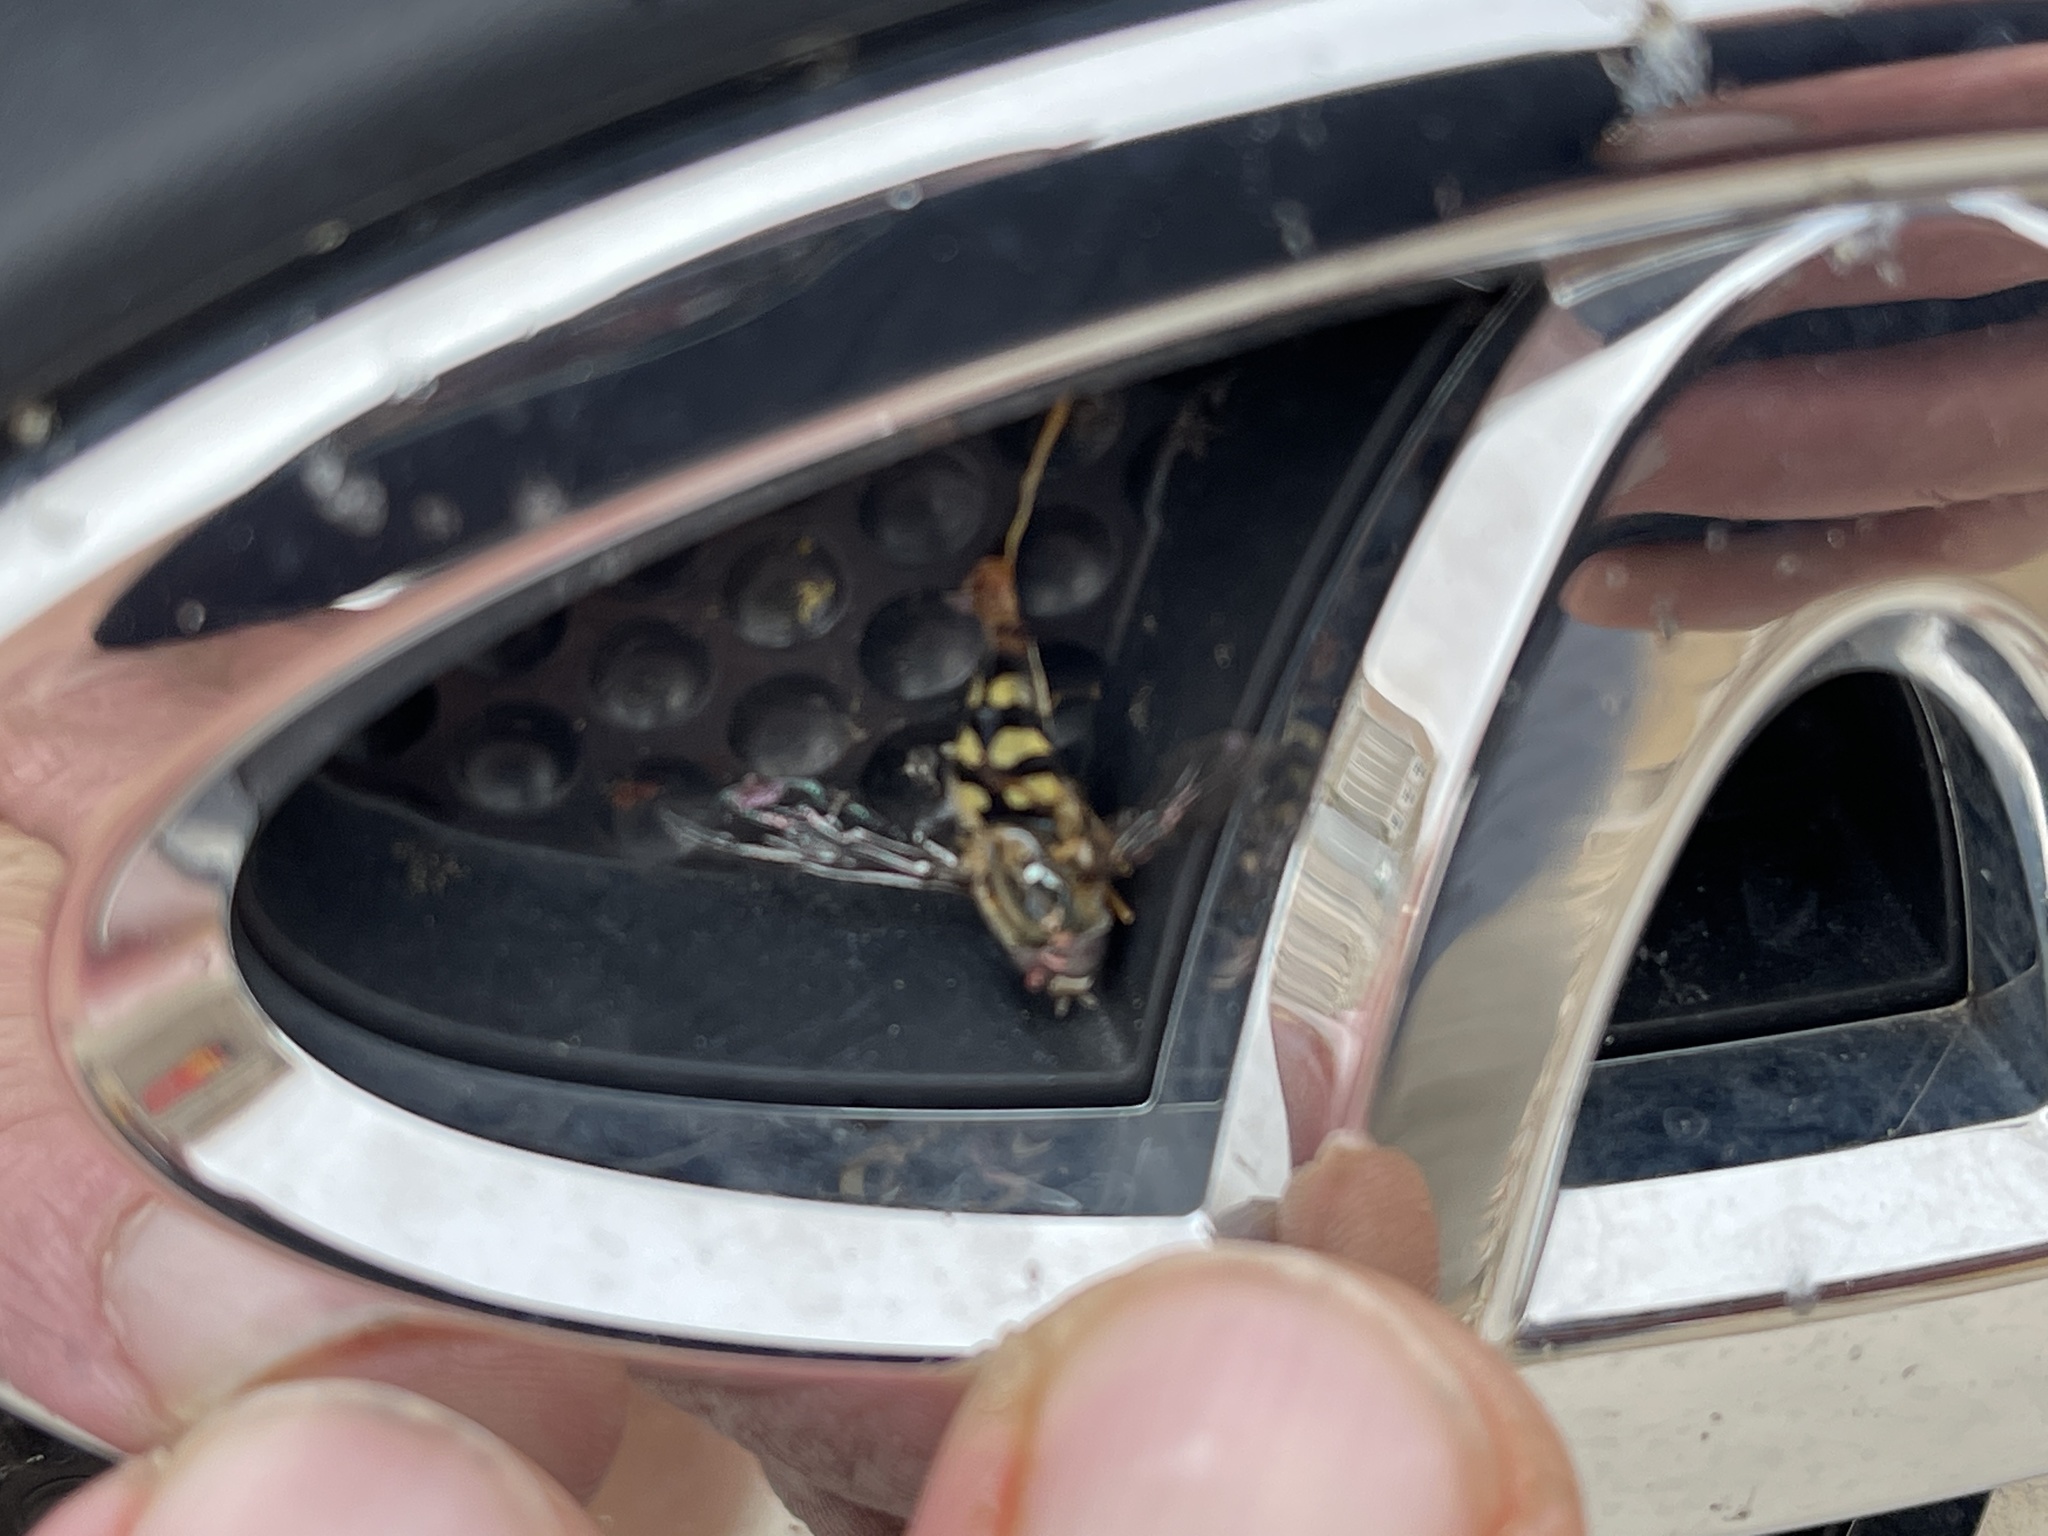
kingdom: Animalia
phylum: Arthropoda
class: Insecta
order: Diptera
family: Syrphidae
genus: Lapposyrphus
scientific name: Lapposyrphus lapponicus
